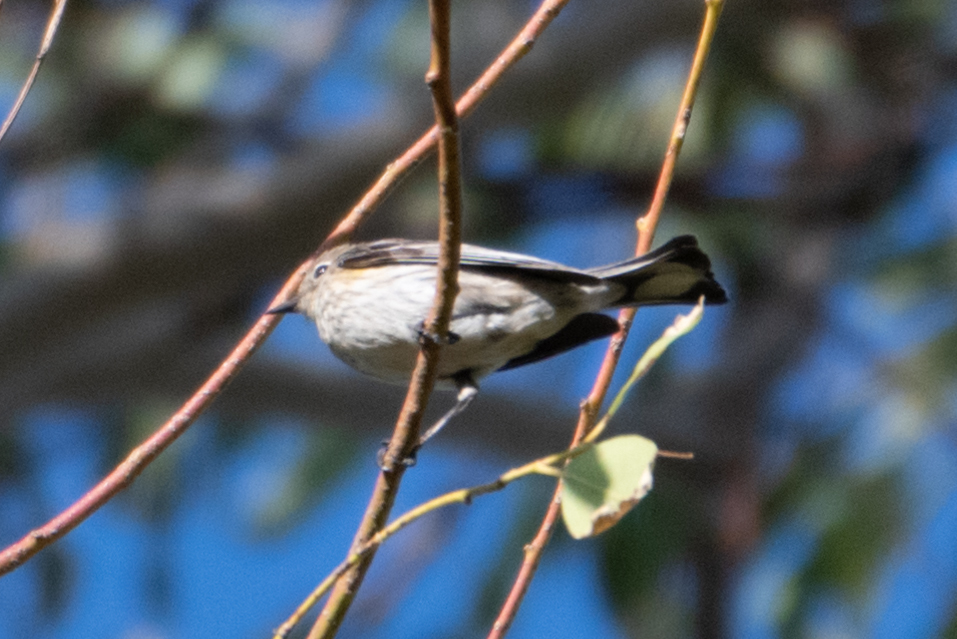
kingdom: Animalia
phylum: Chordata
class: Aves
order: Passeriformes
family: Parulidae
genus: Setophaga
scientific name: Setophaga coronata
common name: Myrtle warbler
